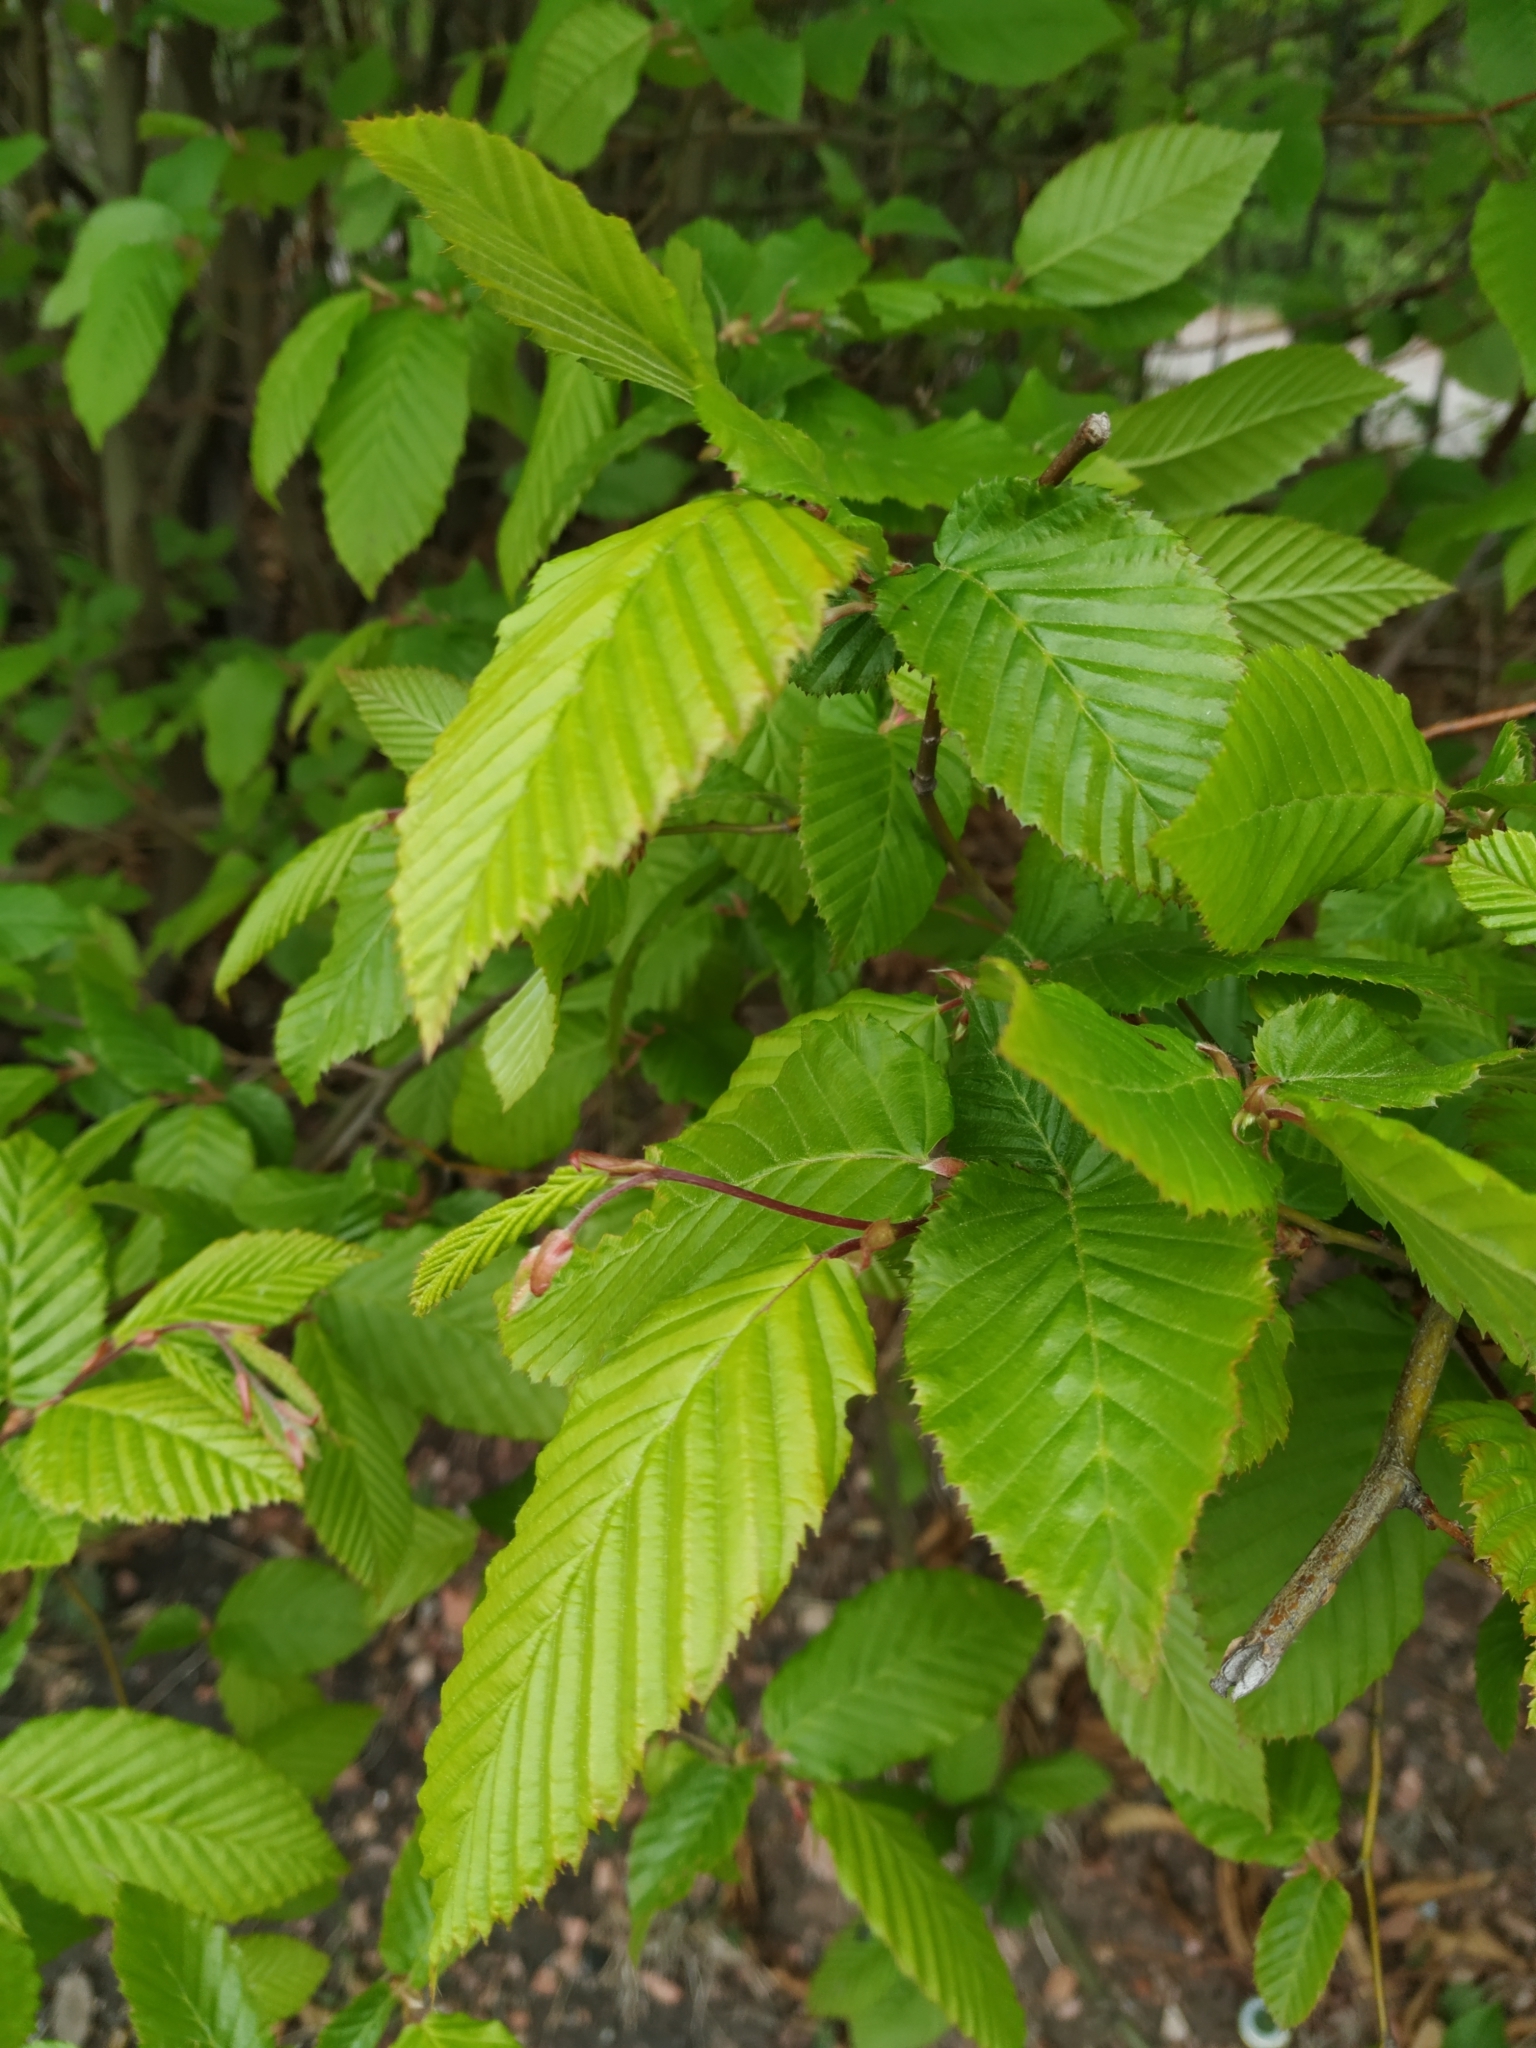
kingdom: Plantae
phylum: Tracheophyta
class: Magnoliopsida
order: Fagales
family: Betulaceae
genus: Carpinus
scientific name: Carpinus betulus
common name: Hornbeam
